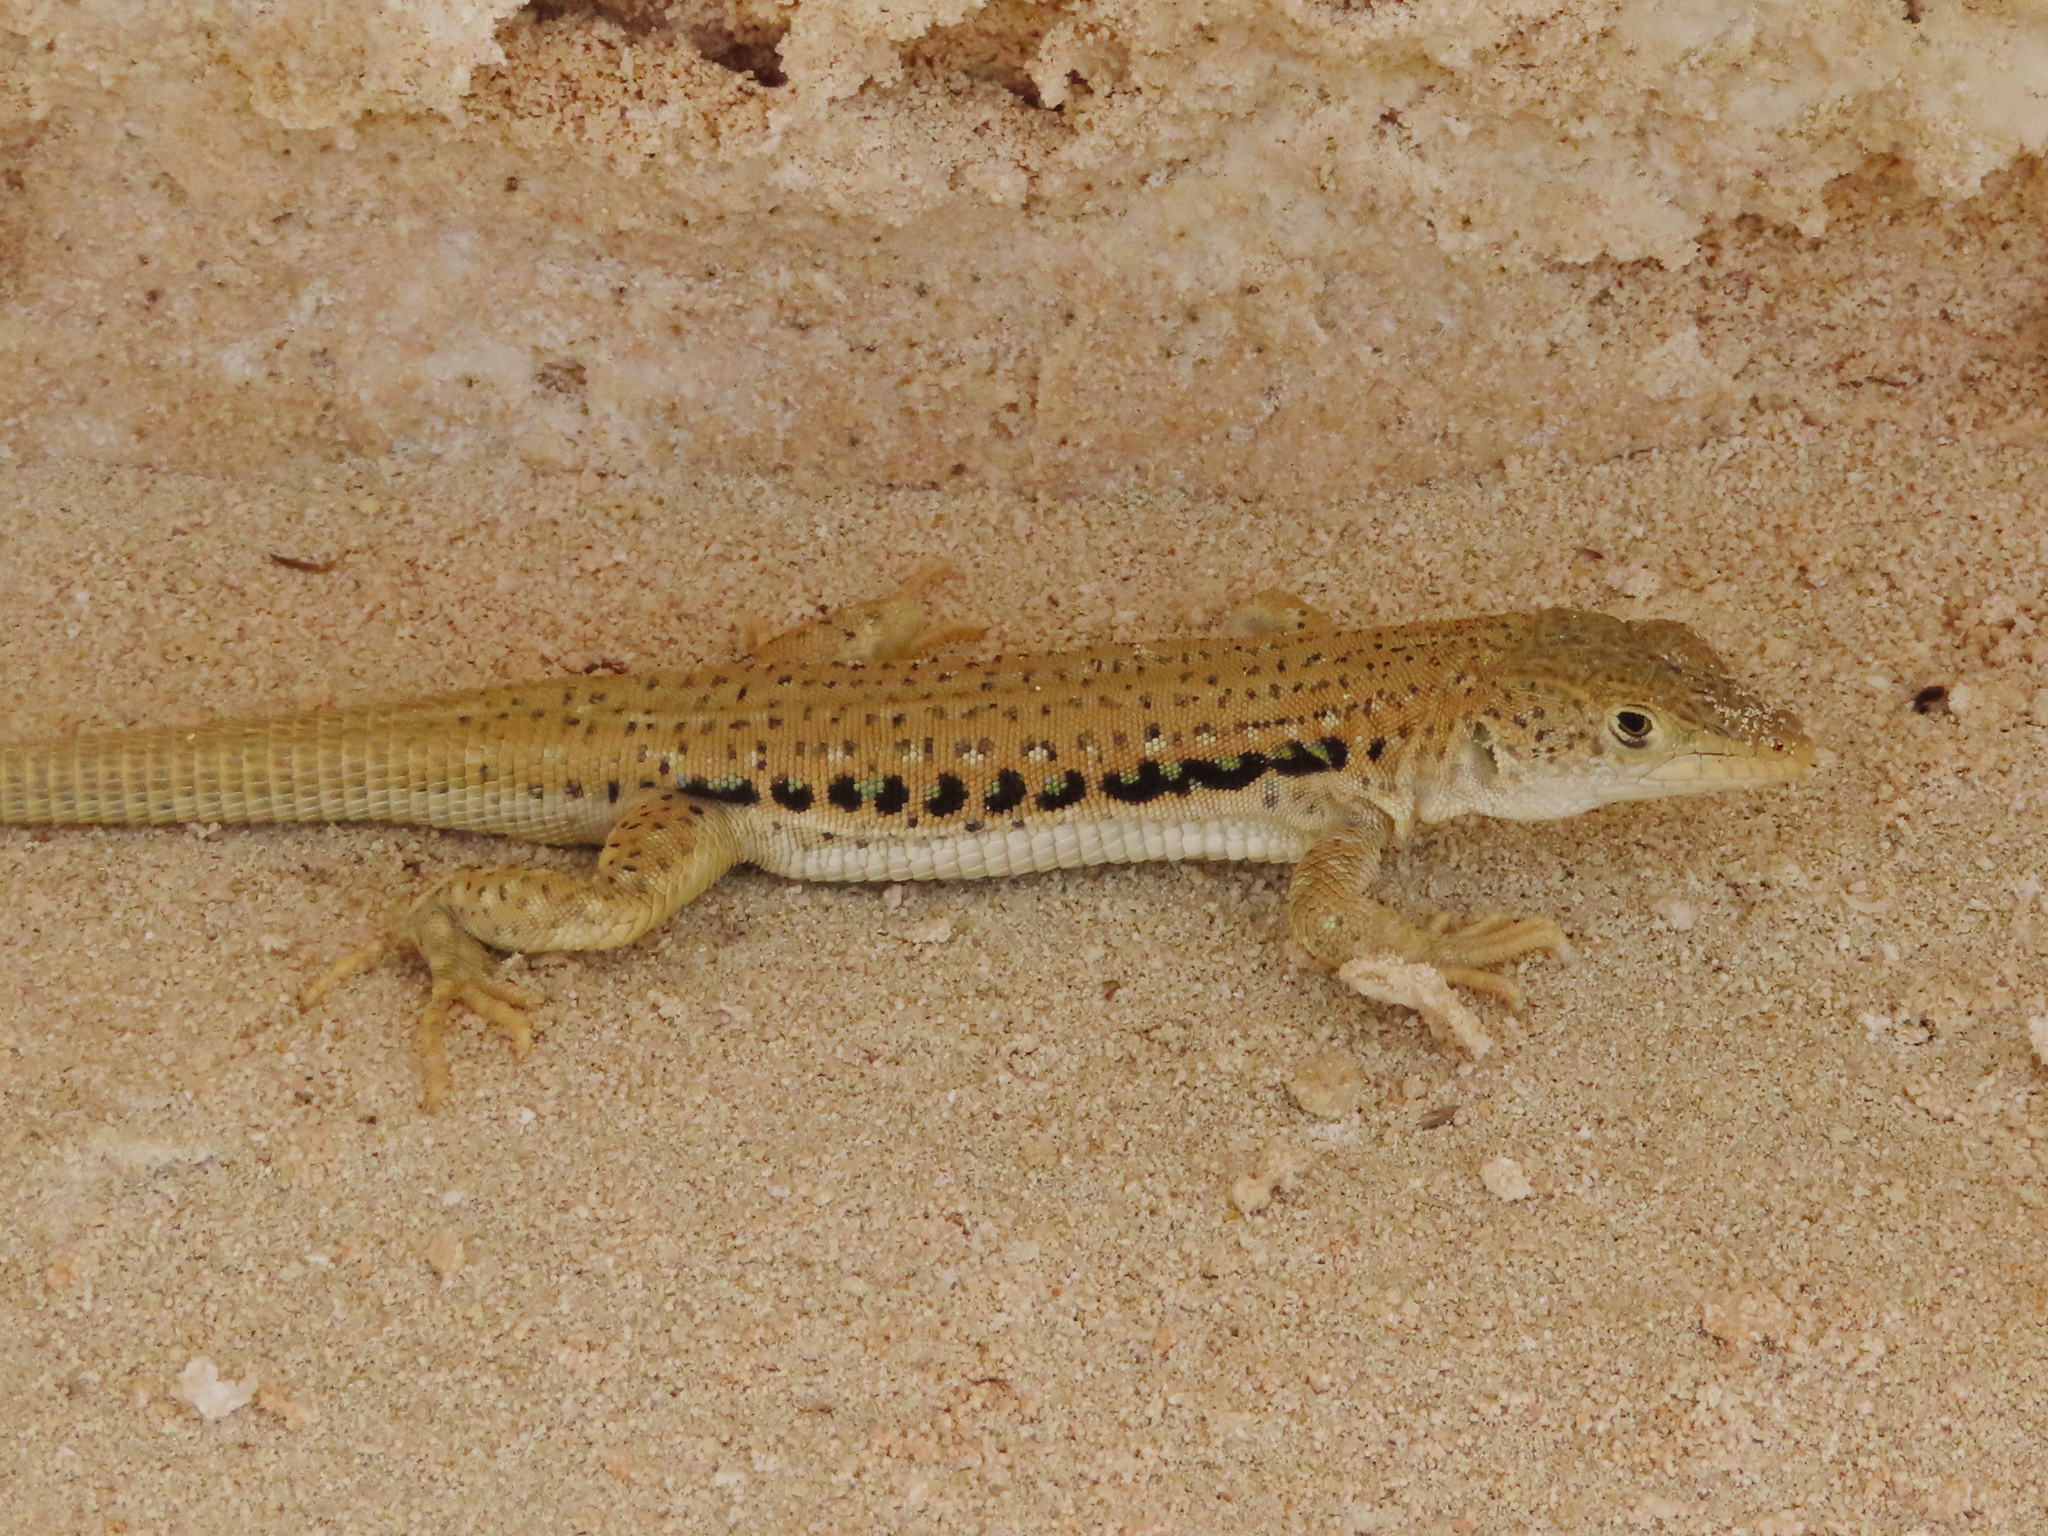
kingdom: Animalia
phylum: Chordata
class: Squamata
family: Lacertidae
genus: Eremias
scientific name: Eremias velox
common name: Central asian racerunner
